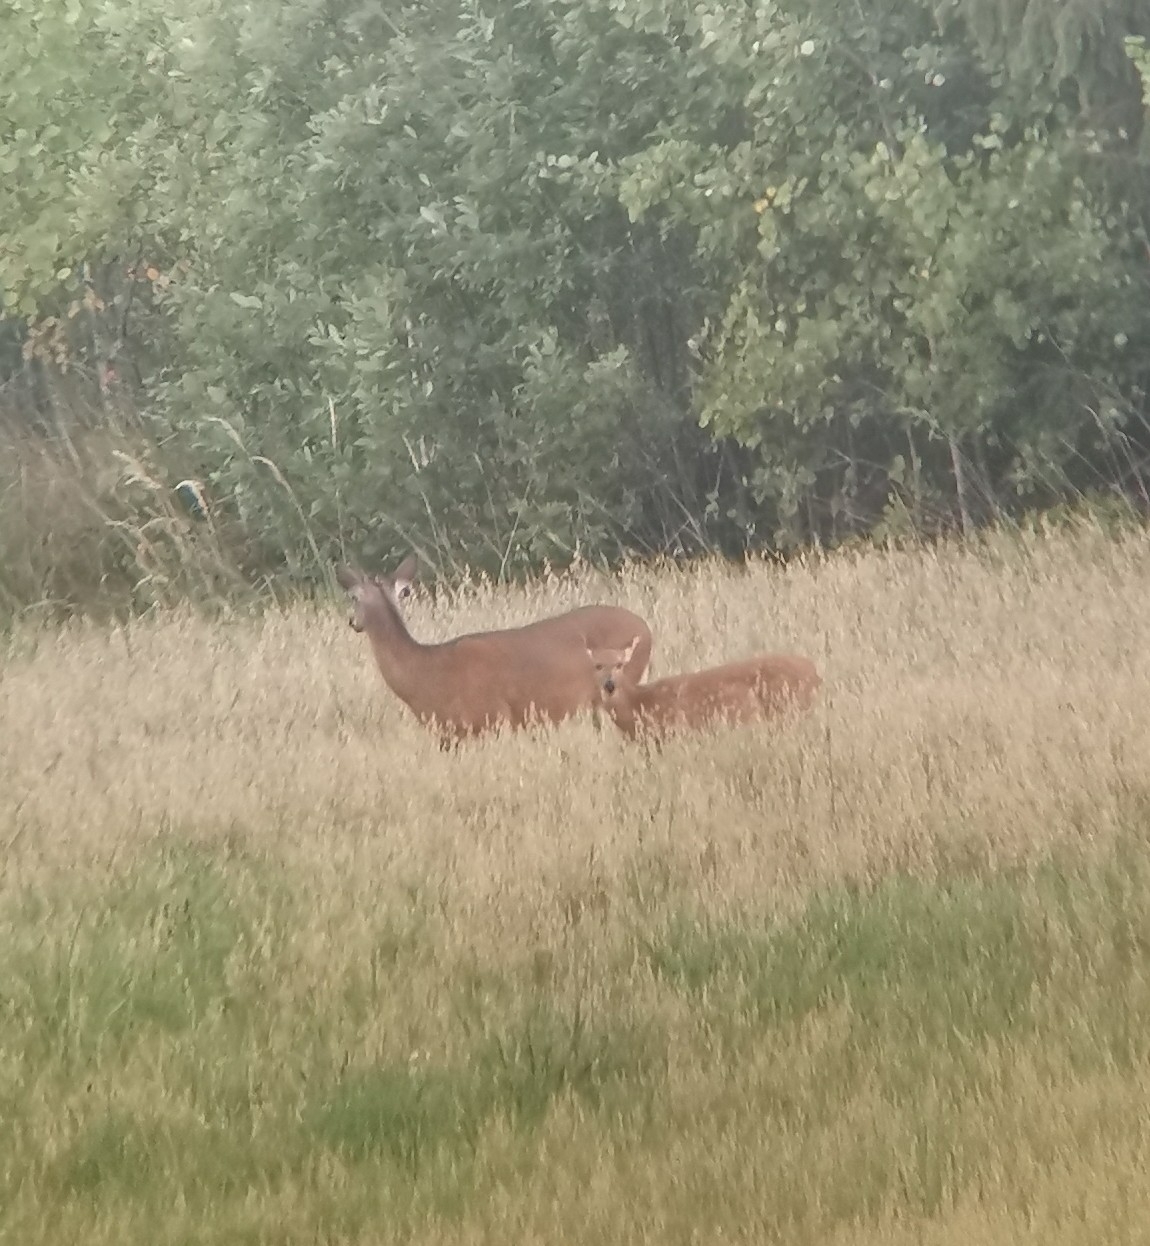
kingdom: Animalia
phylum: Chordata
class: Mammalia
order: Artiodactyla
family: Cervidae
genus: Odocoileus
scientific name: Odocoileus virginianus
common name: White-tailed deer
